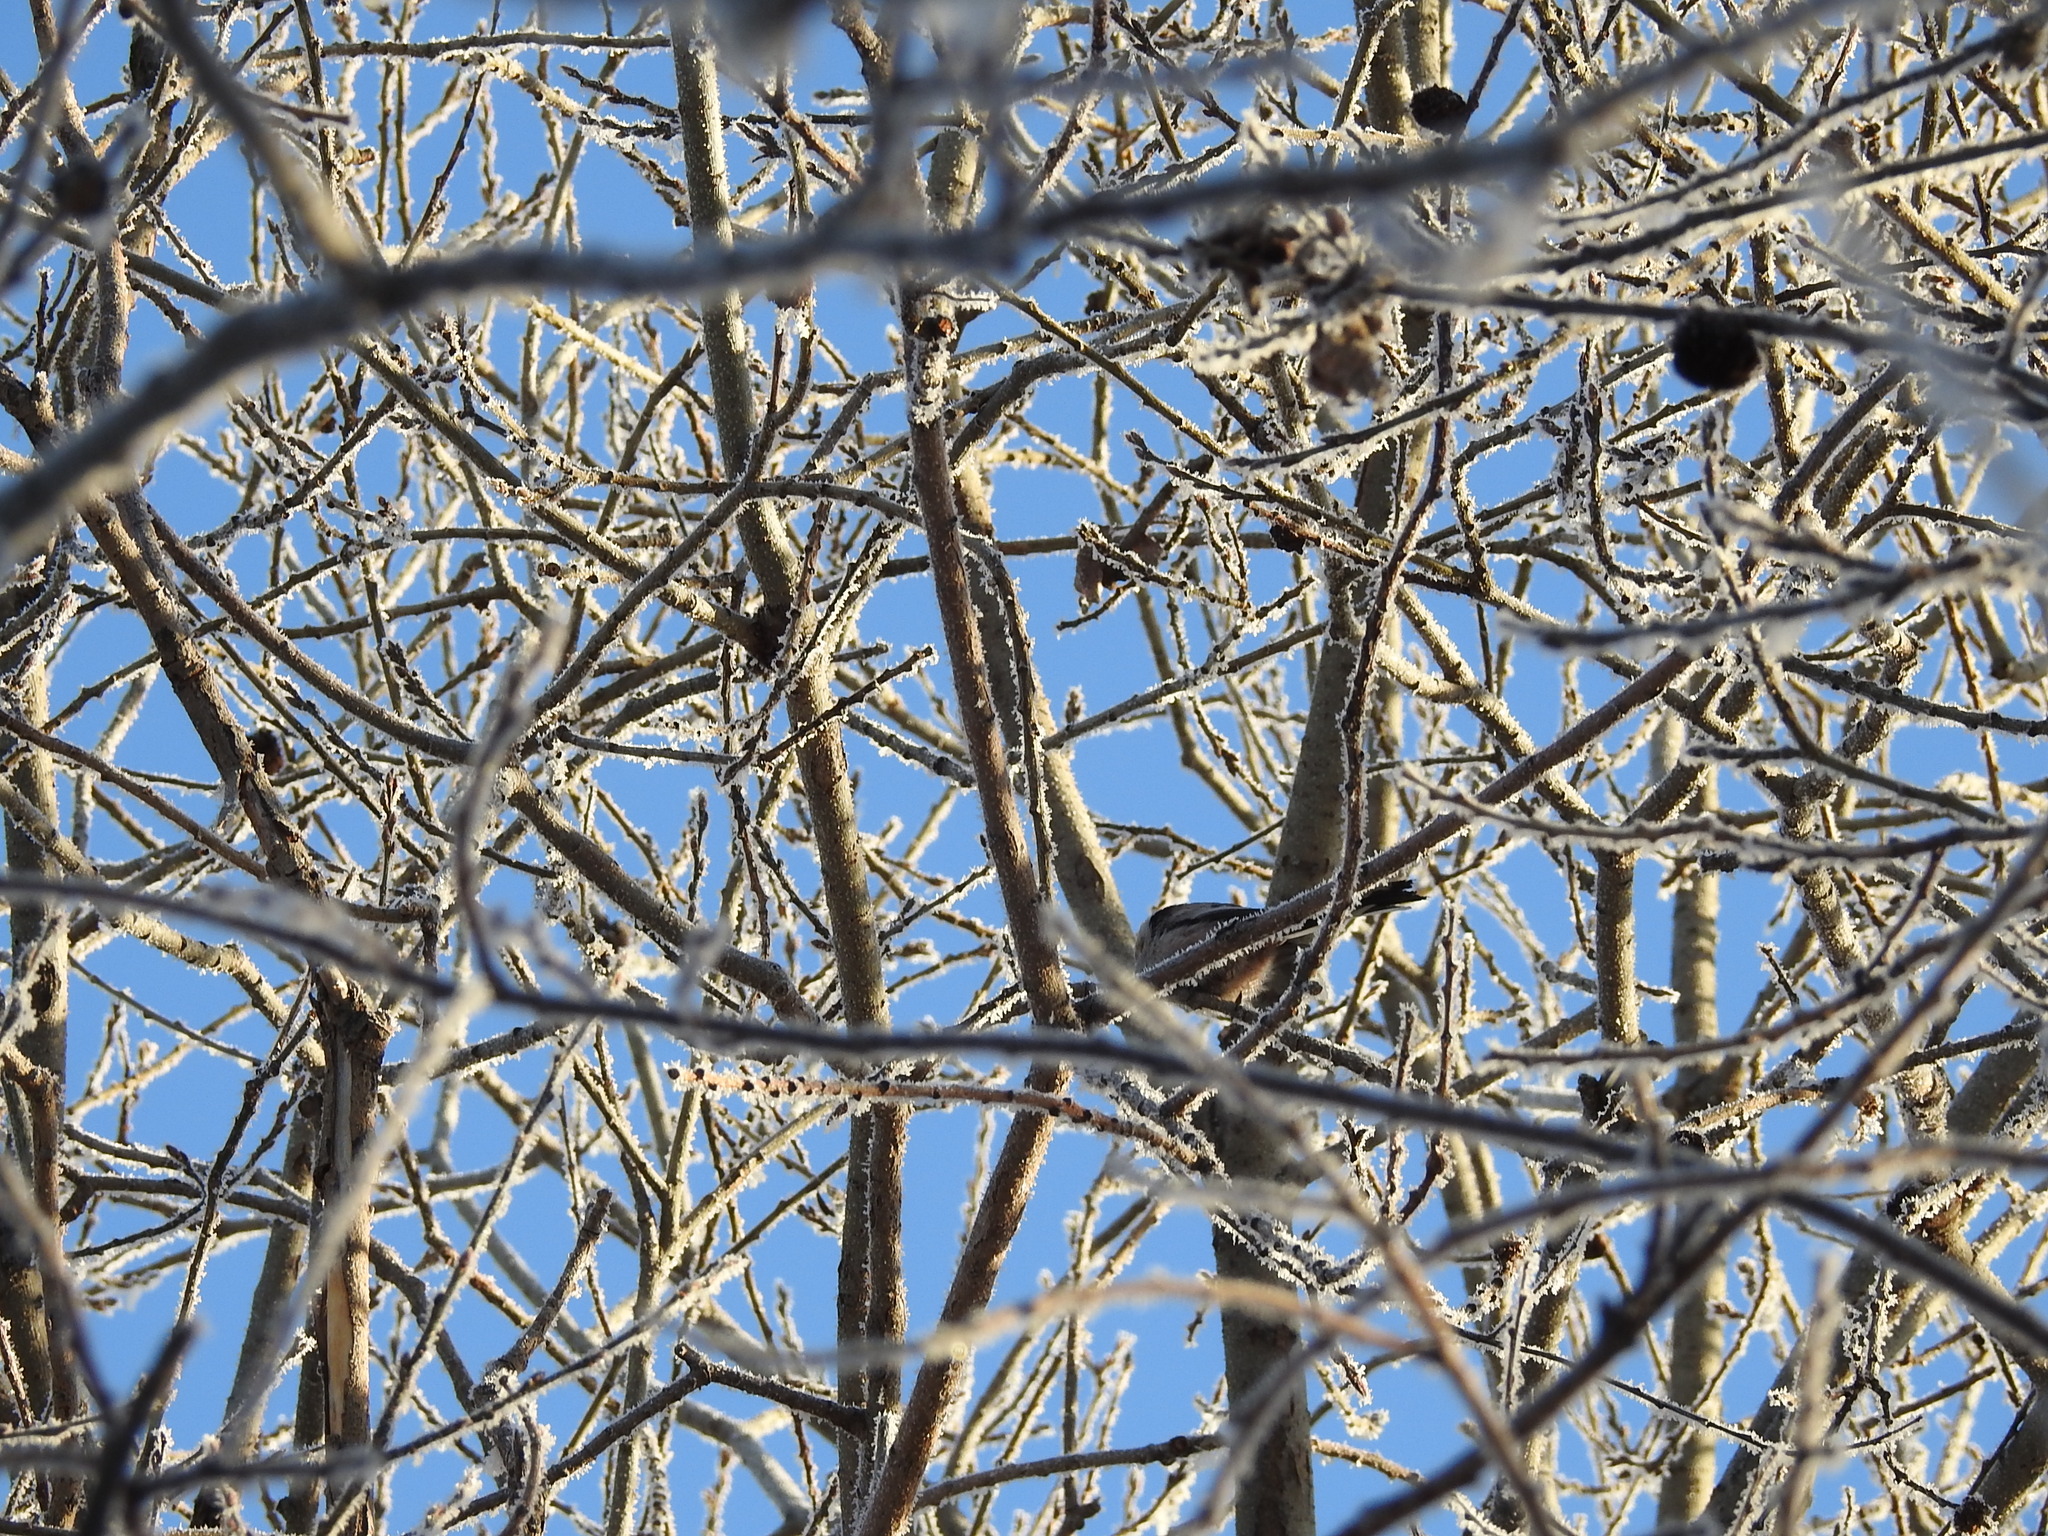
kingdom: Animalia
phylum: Chordata
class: Aves
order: Passeriformes
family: Aegithalidae
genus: Aegithalos
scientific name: Aegithalos caudatus
